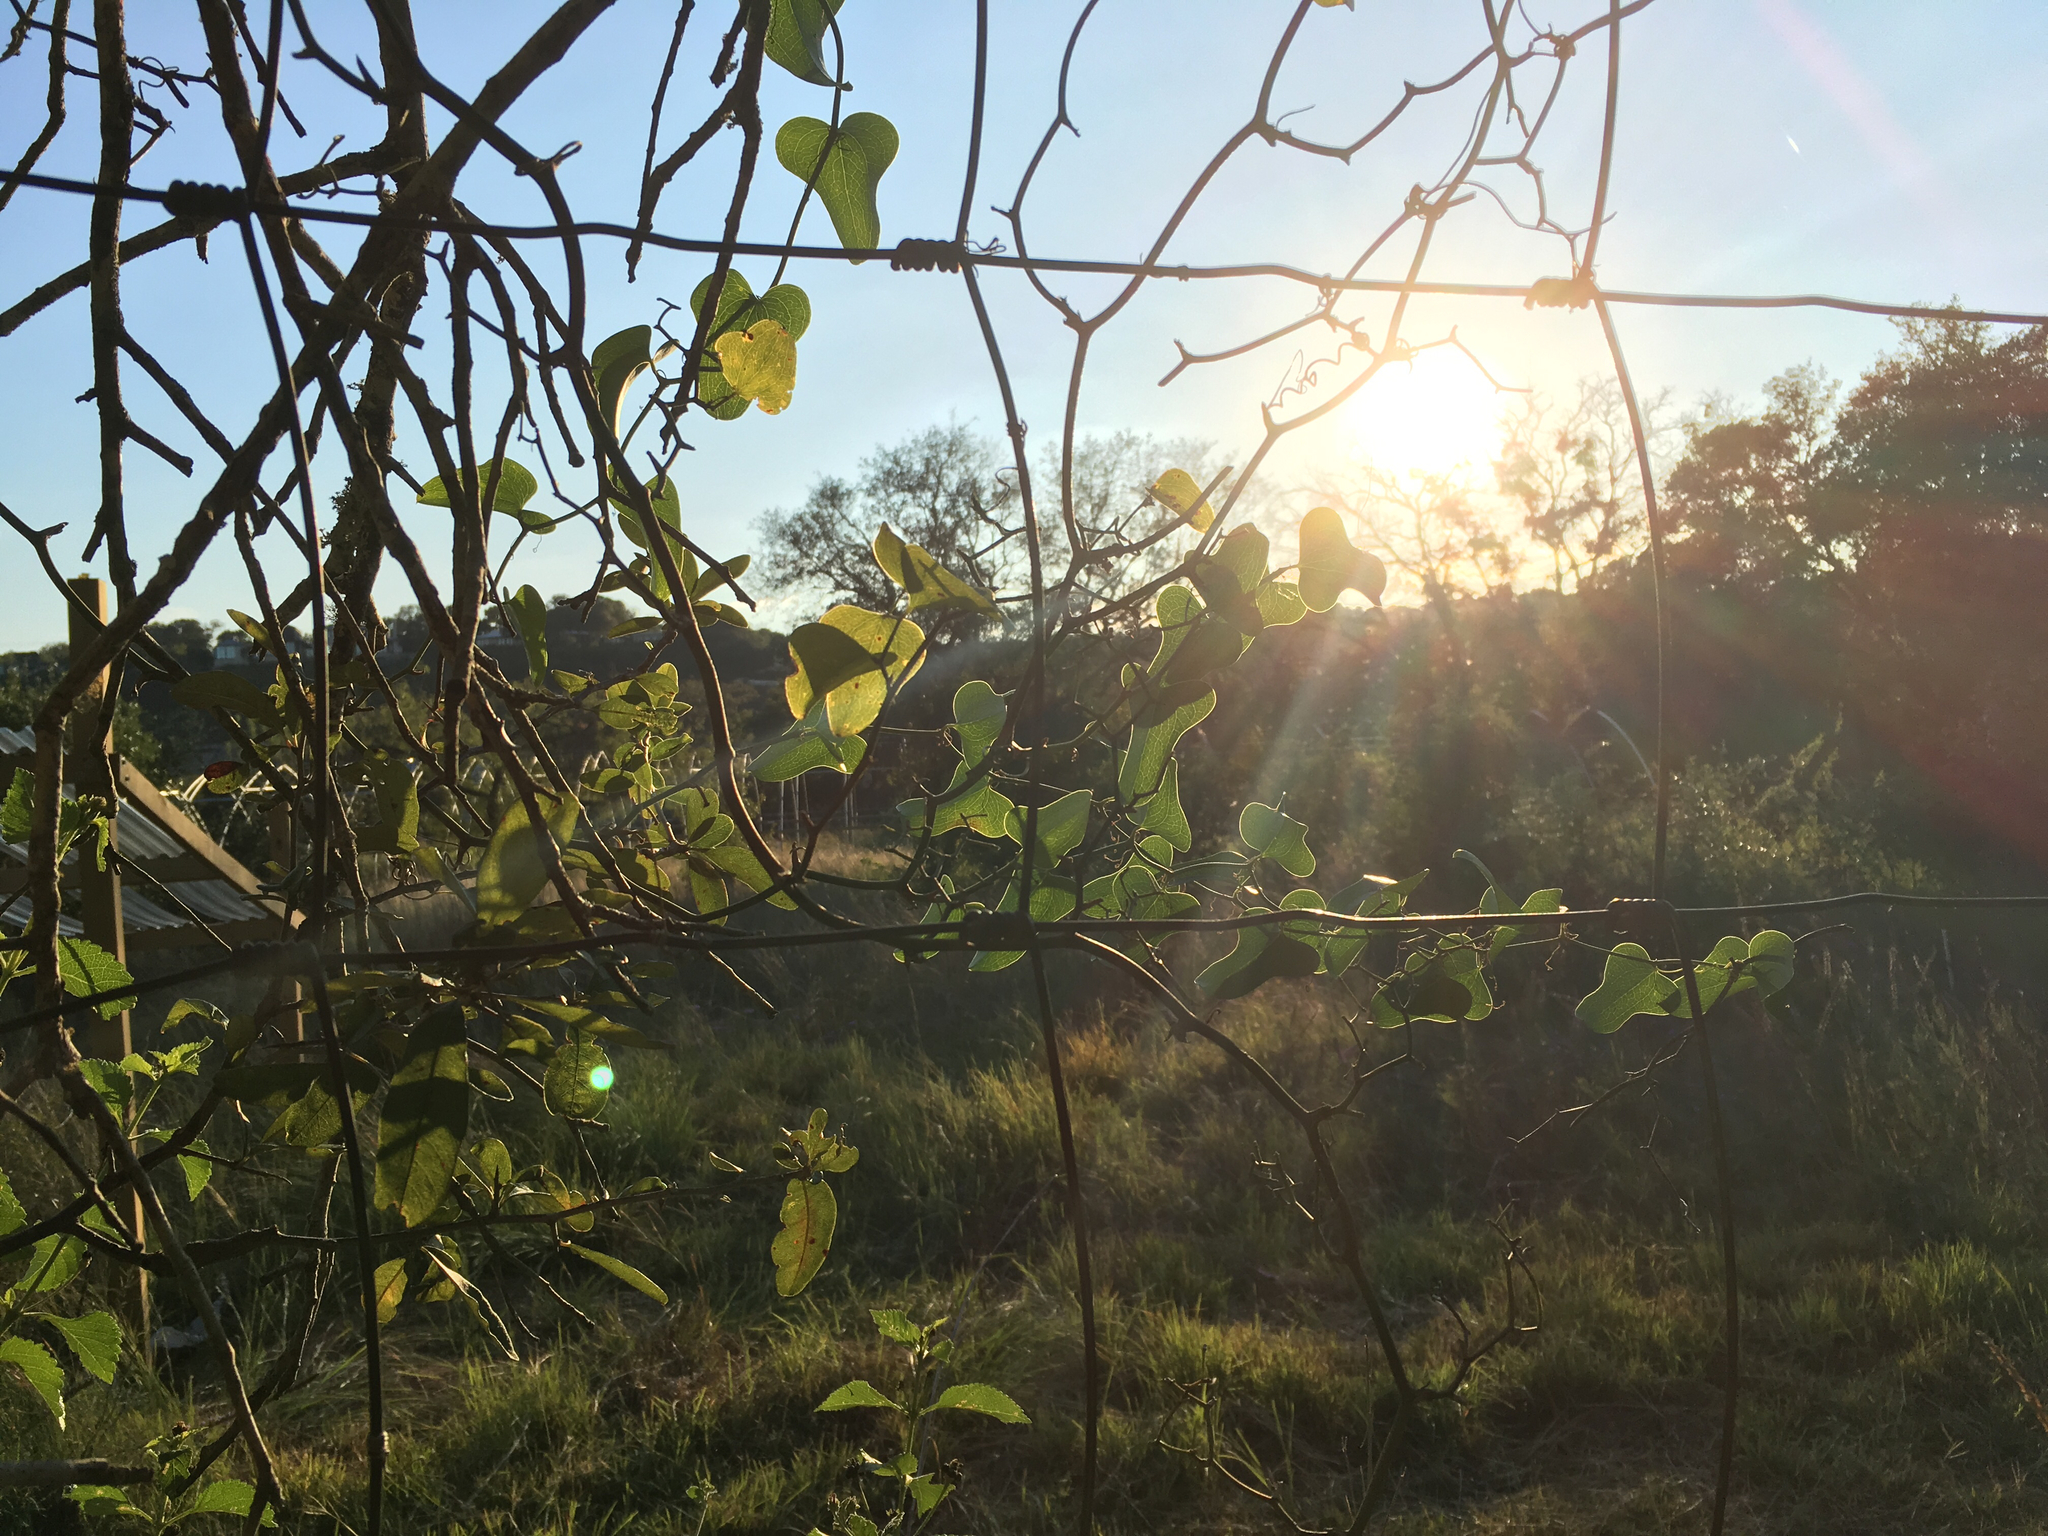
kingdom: Plantae
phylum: Tracheophyta
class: Liliopsida
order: Liliales
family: Smilacaceae
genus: Smilax
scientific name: Smilax bona-nox
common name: Catbrier
